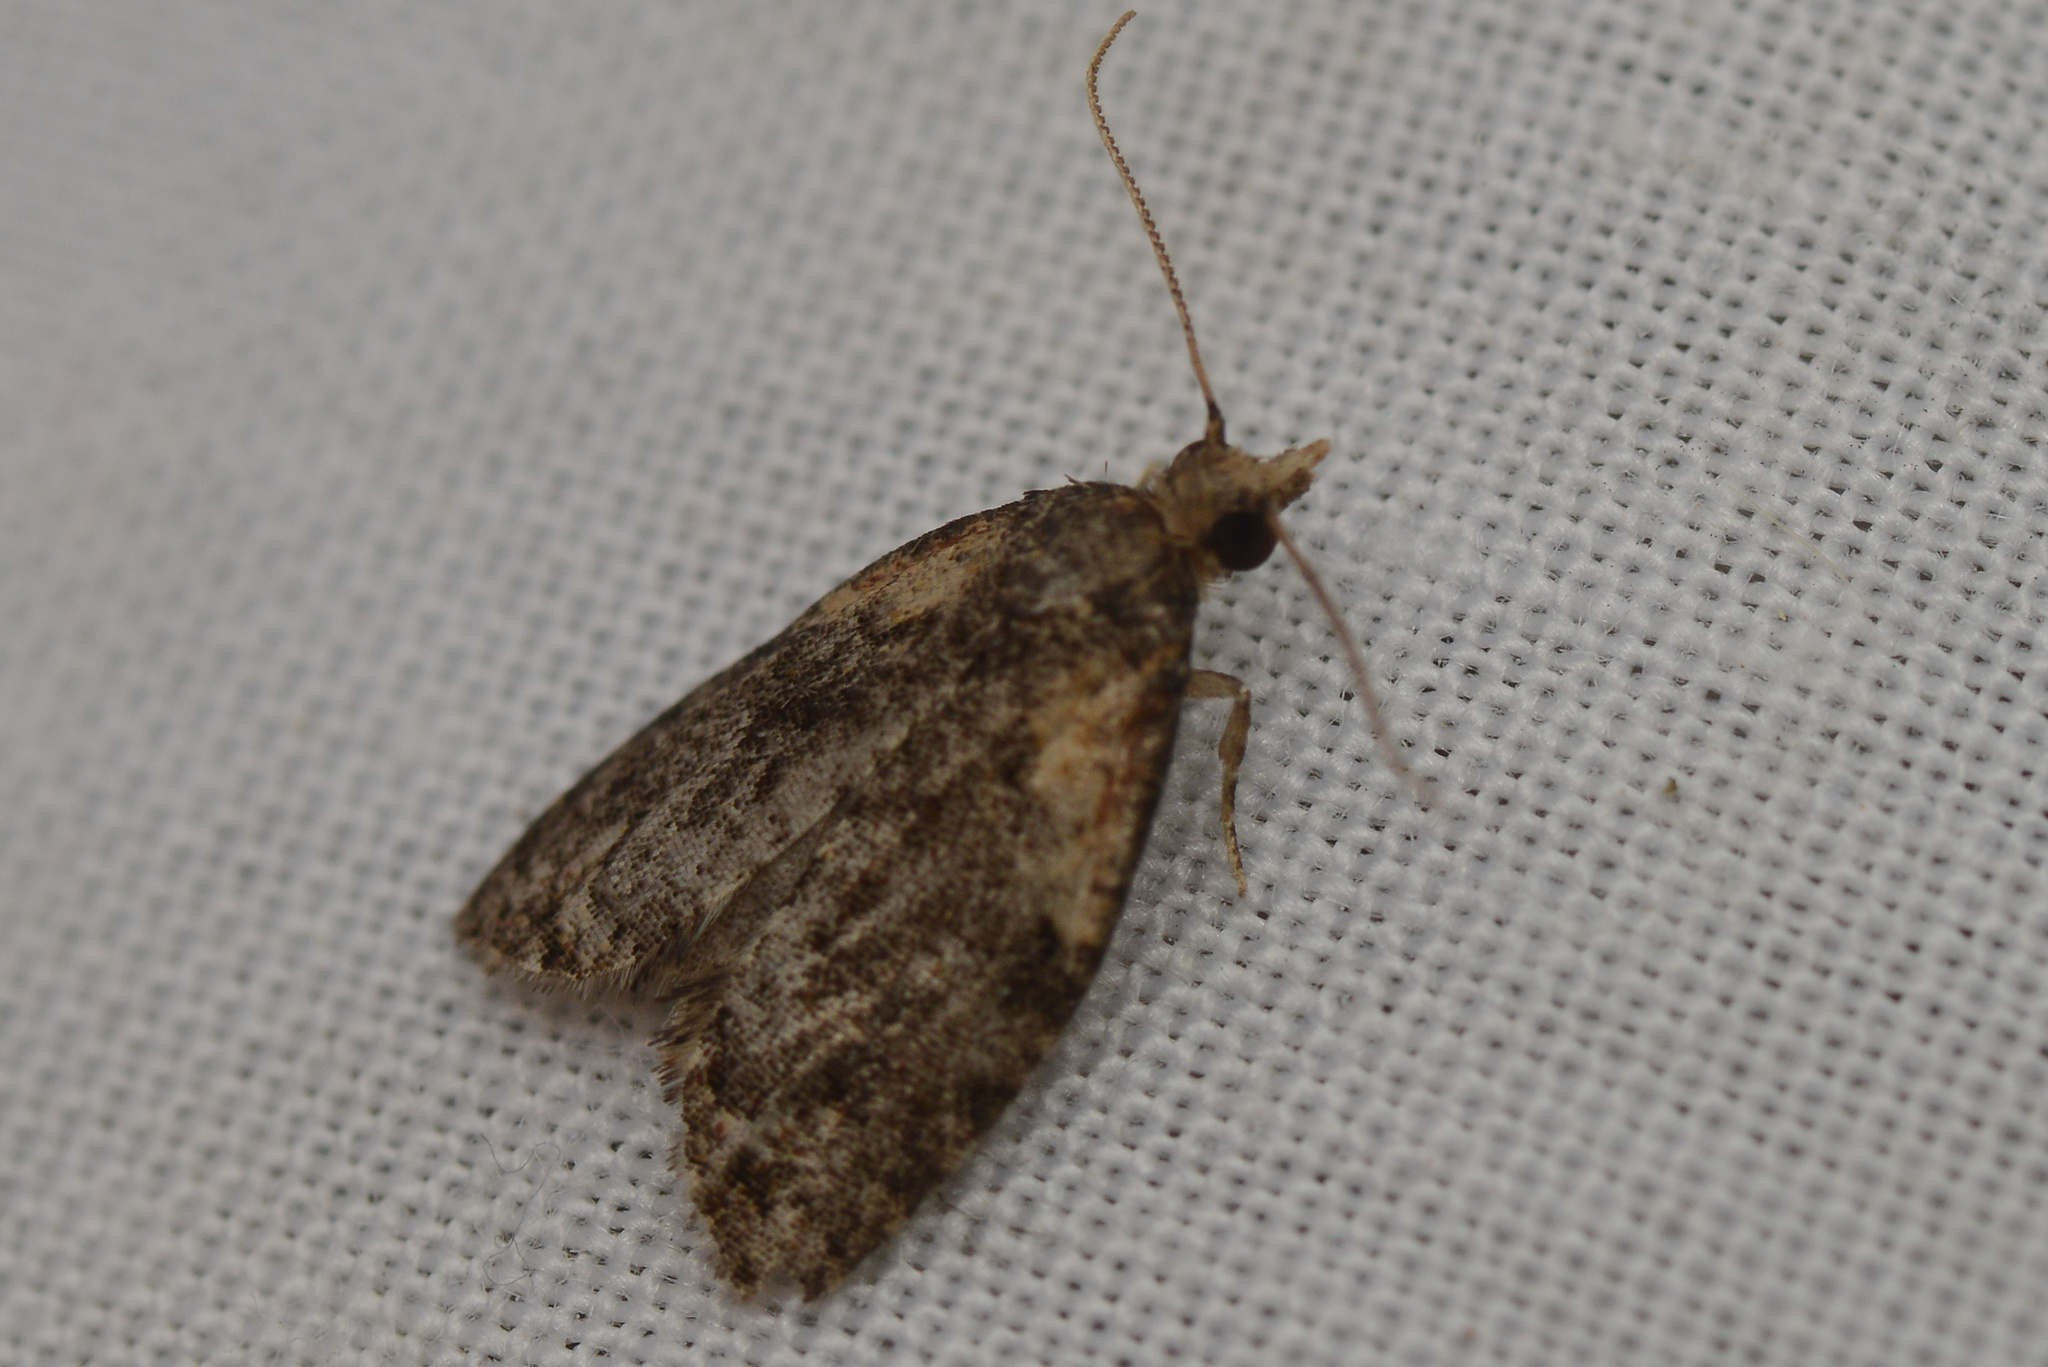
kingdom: Animalia
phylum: Arthropoda
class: Insecta
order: Lepidoptera
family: Tortricidae
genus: Capua
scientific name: Capua intractana
